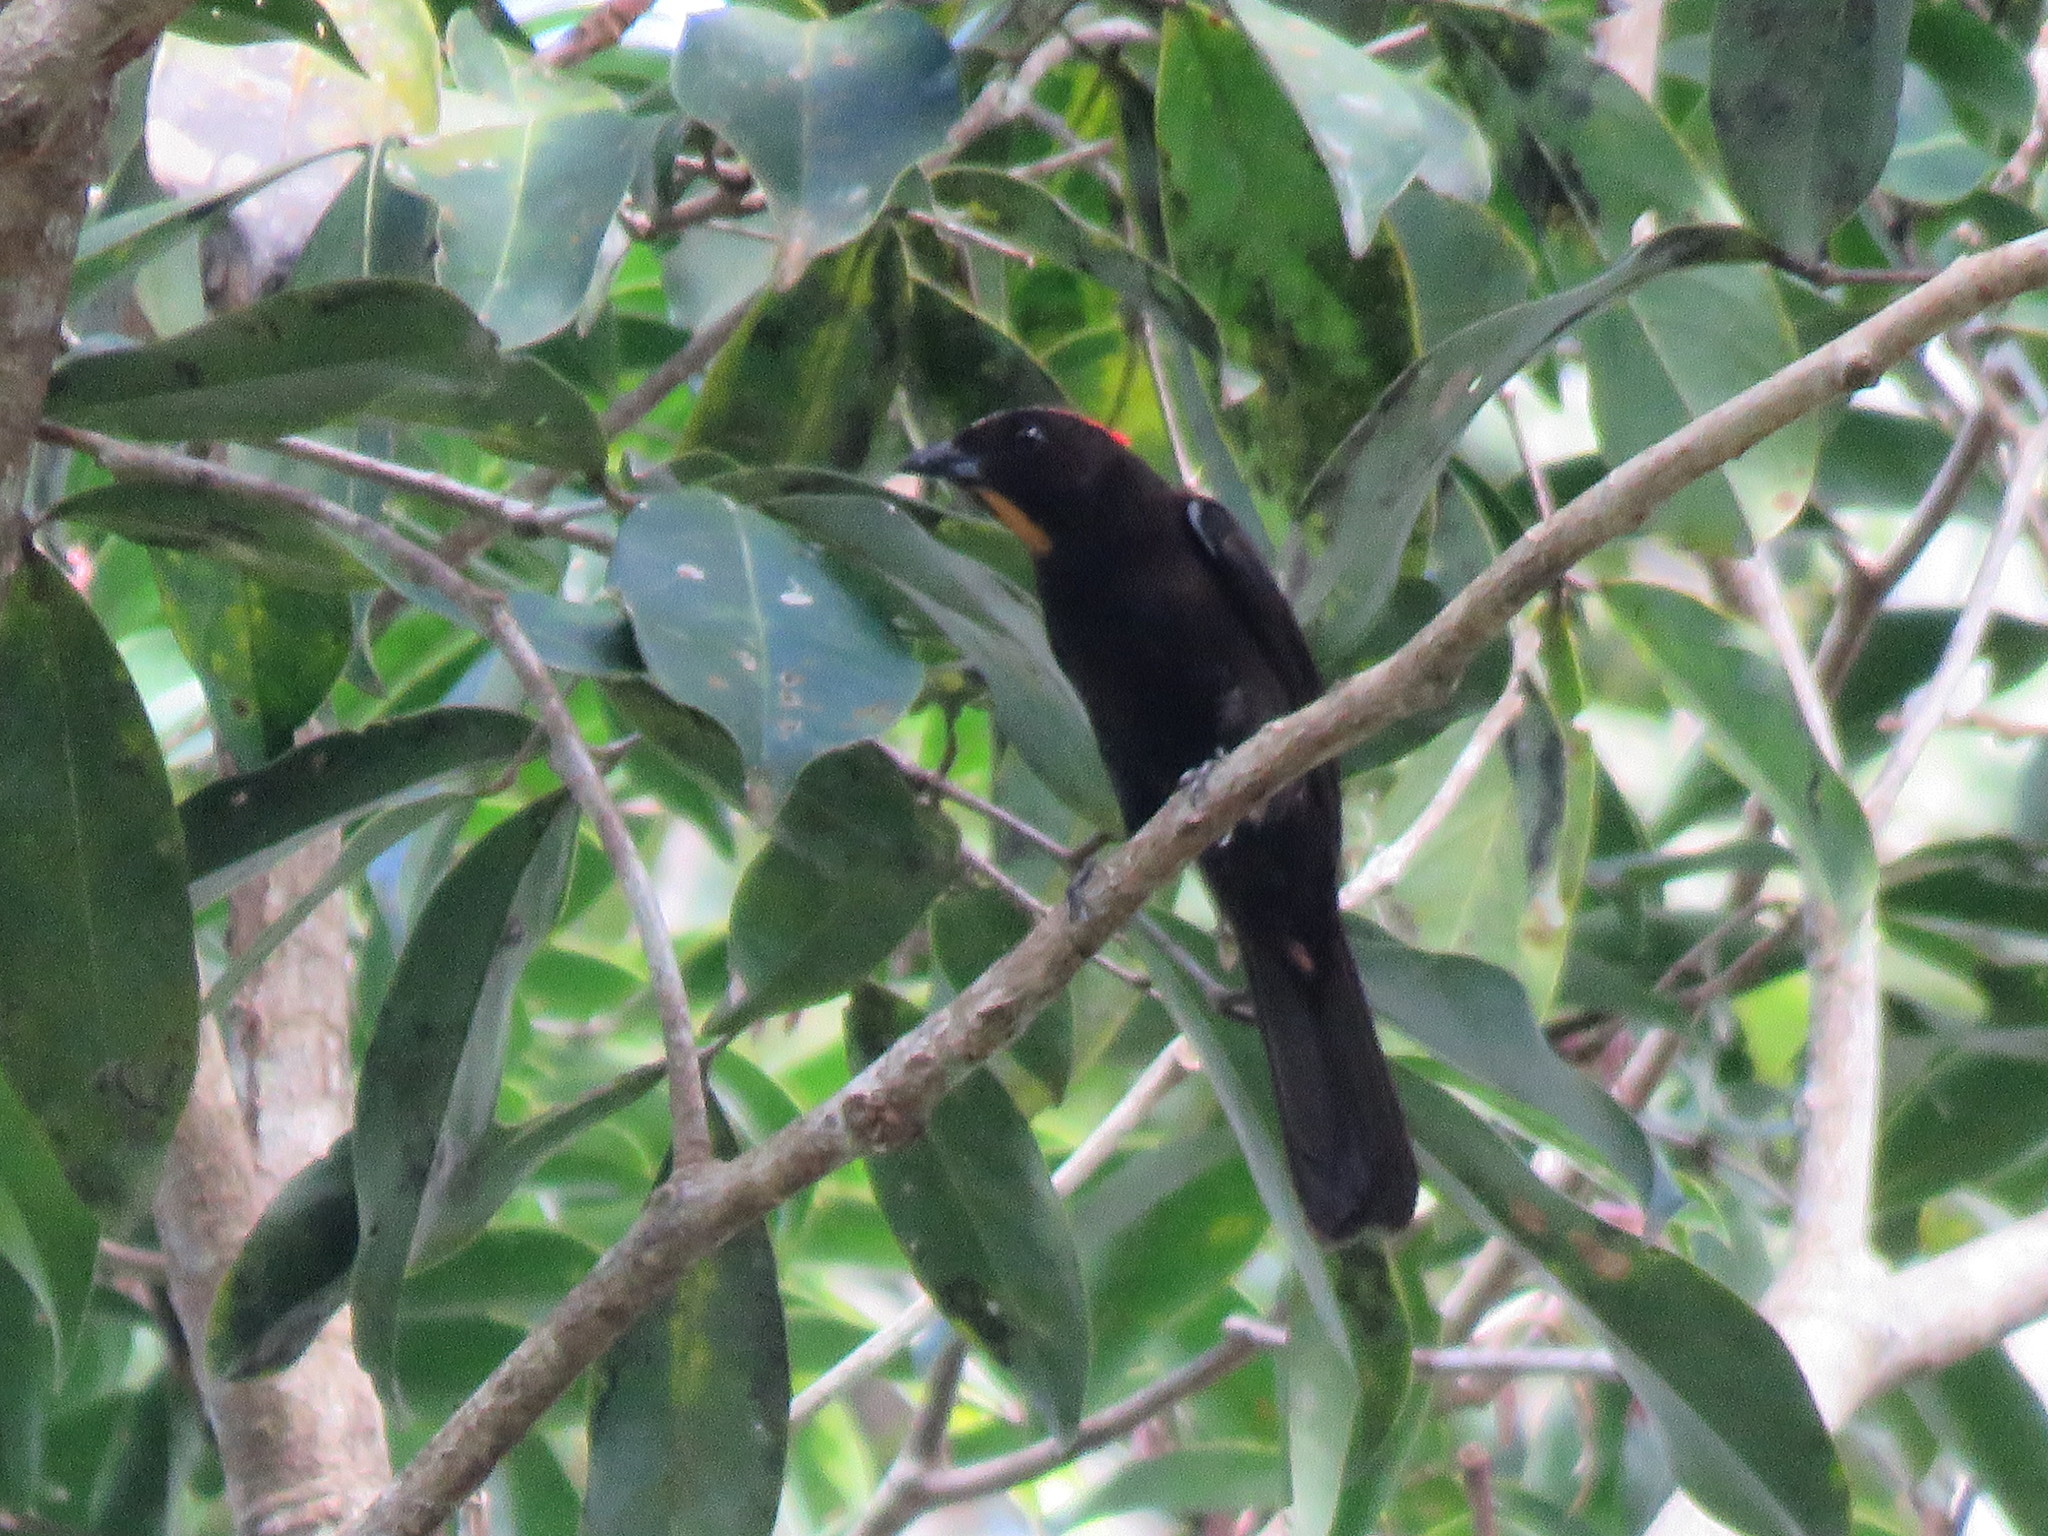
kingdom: Animalia
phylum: Chordata
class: Aves
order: Passeriformes
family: Thraupidae
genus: Loriotus
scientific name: Loriotus cristatus
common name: Flame-crested tanager
